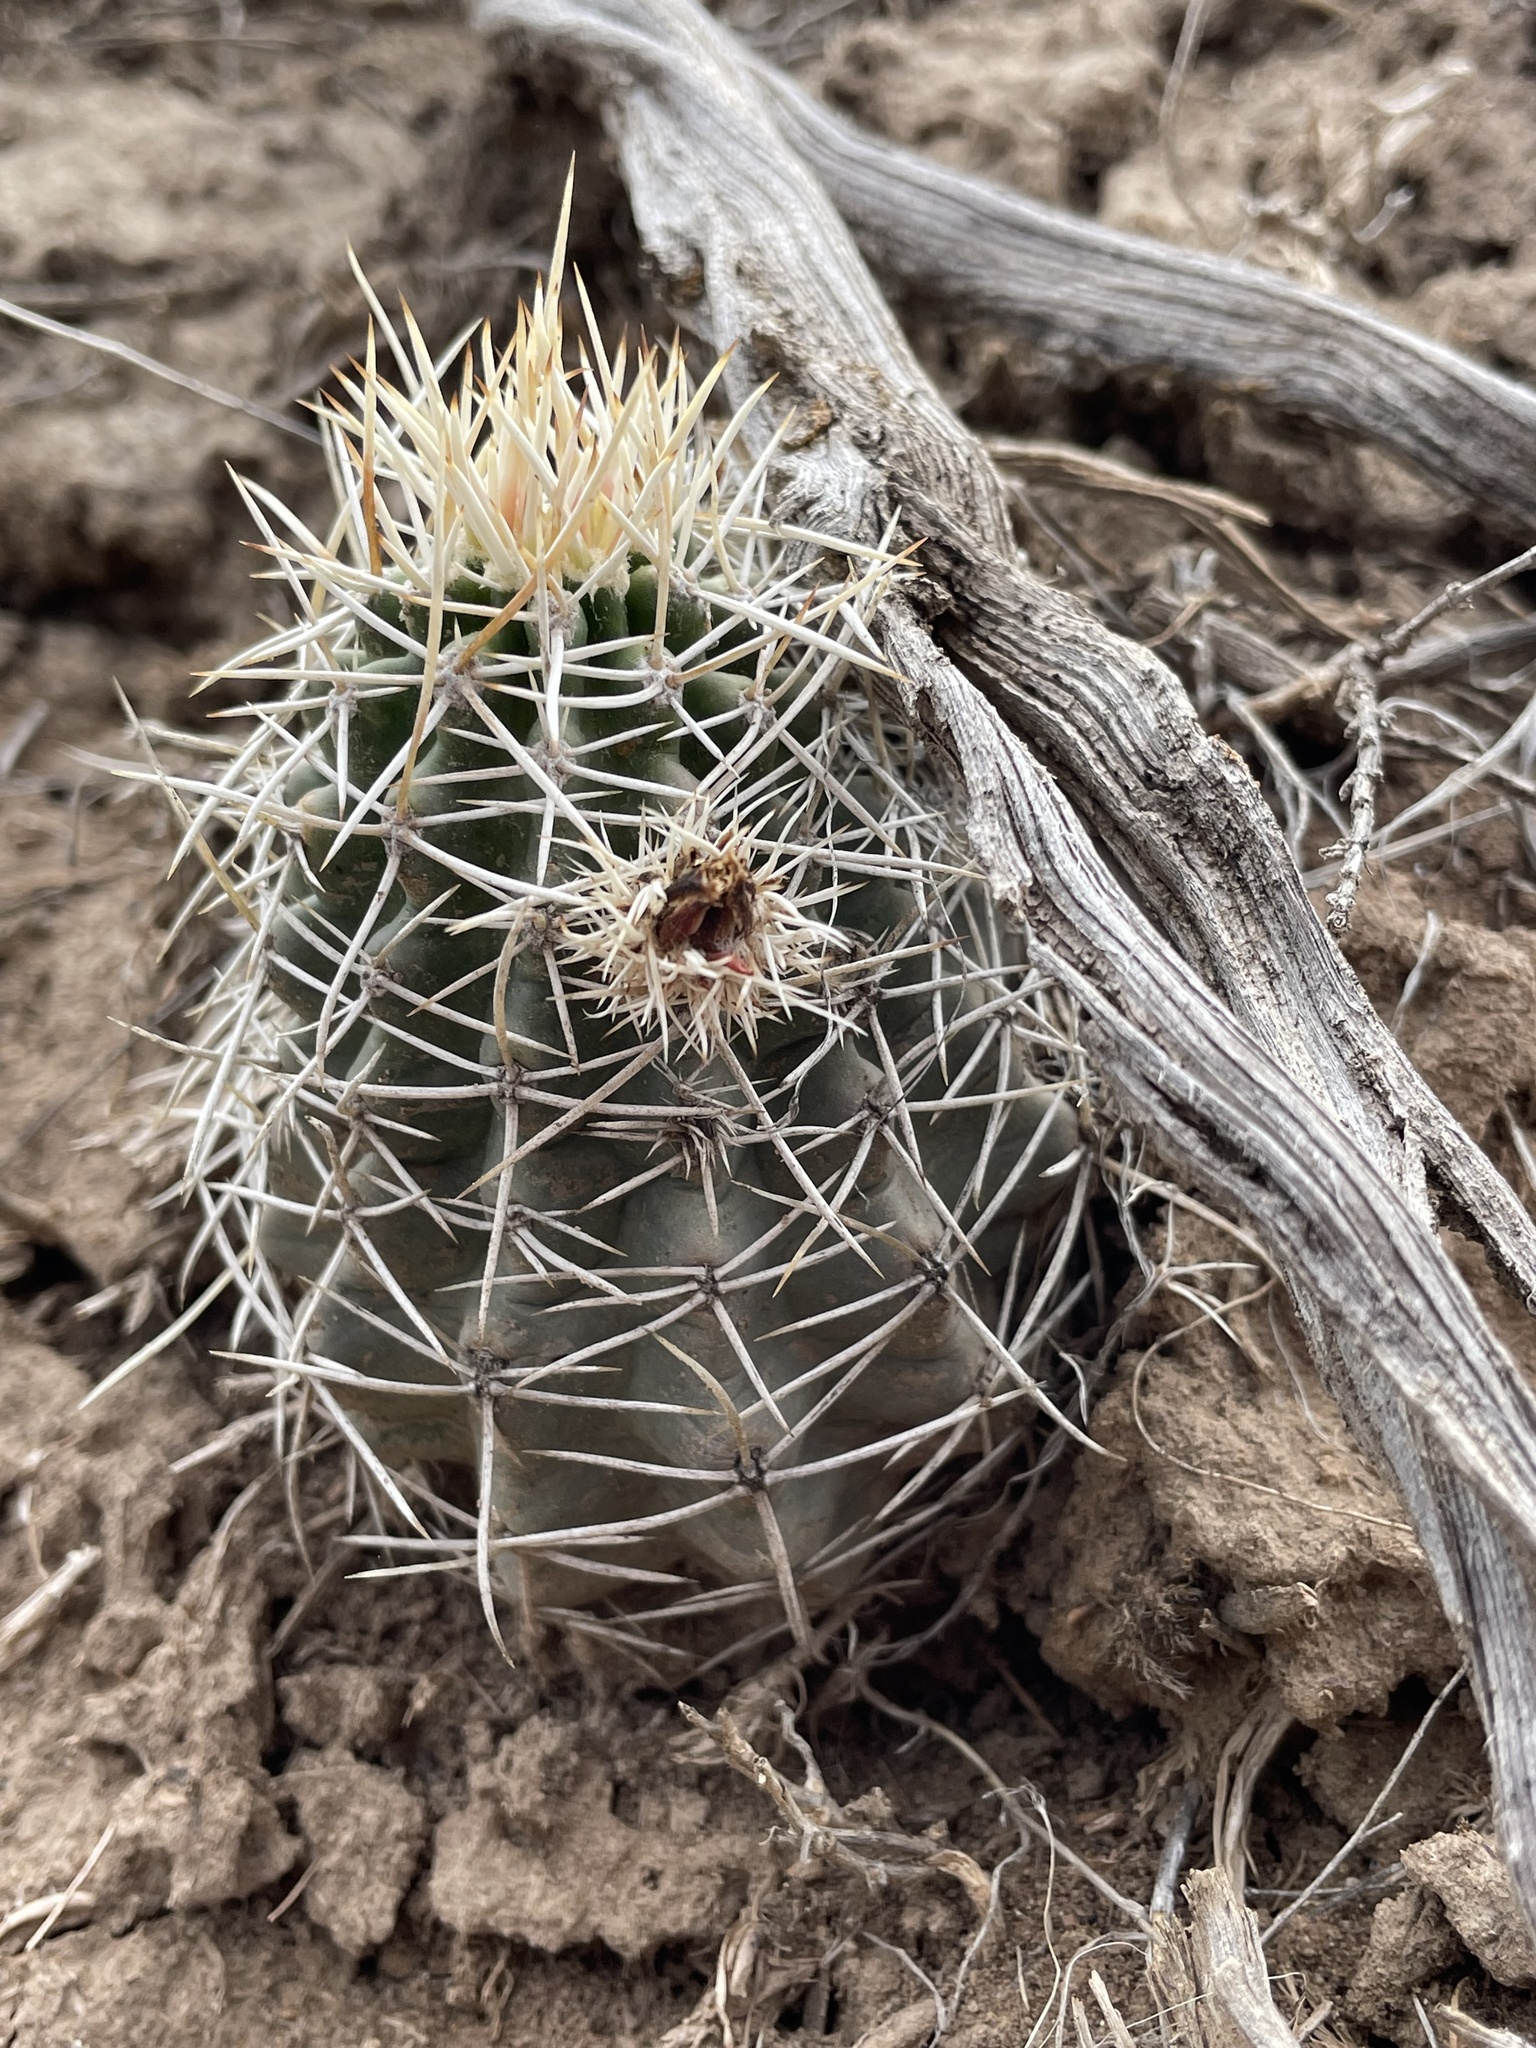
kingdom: Plantae
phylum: Tracheophyta
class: Magnoliopsida
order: Caryophyllales
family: Cactaceae
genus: Echinocereus
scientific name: Echinocereus fendleri
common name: Fendler's hedgehog cactus
